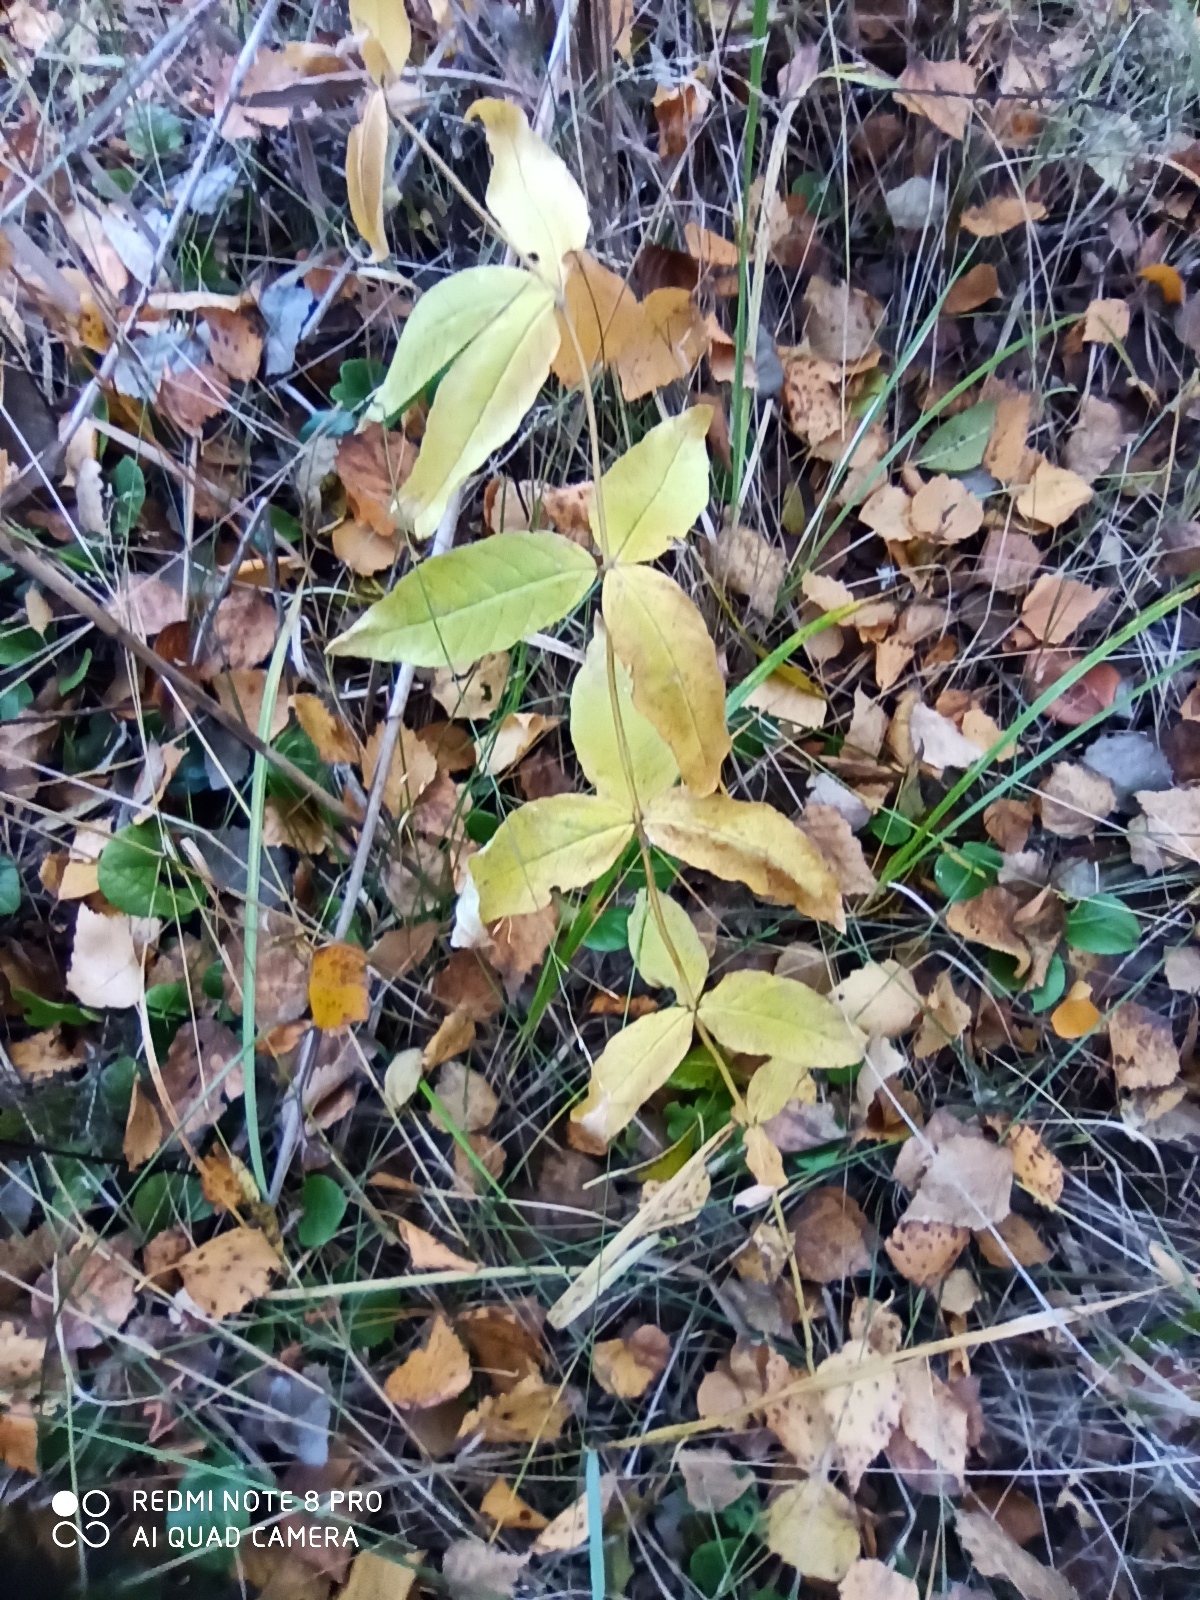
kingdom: Plantae
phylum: Tracheophyta
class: Magnoliopsida
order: Ericales
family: Primulaceae
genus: Lysimachia
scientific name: Lysimachia vulgaris
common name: Yellow loosestrife
